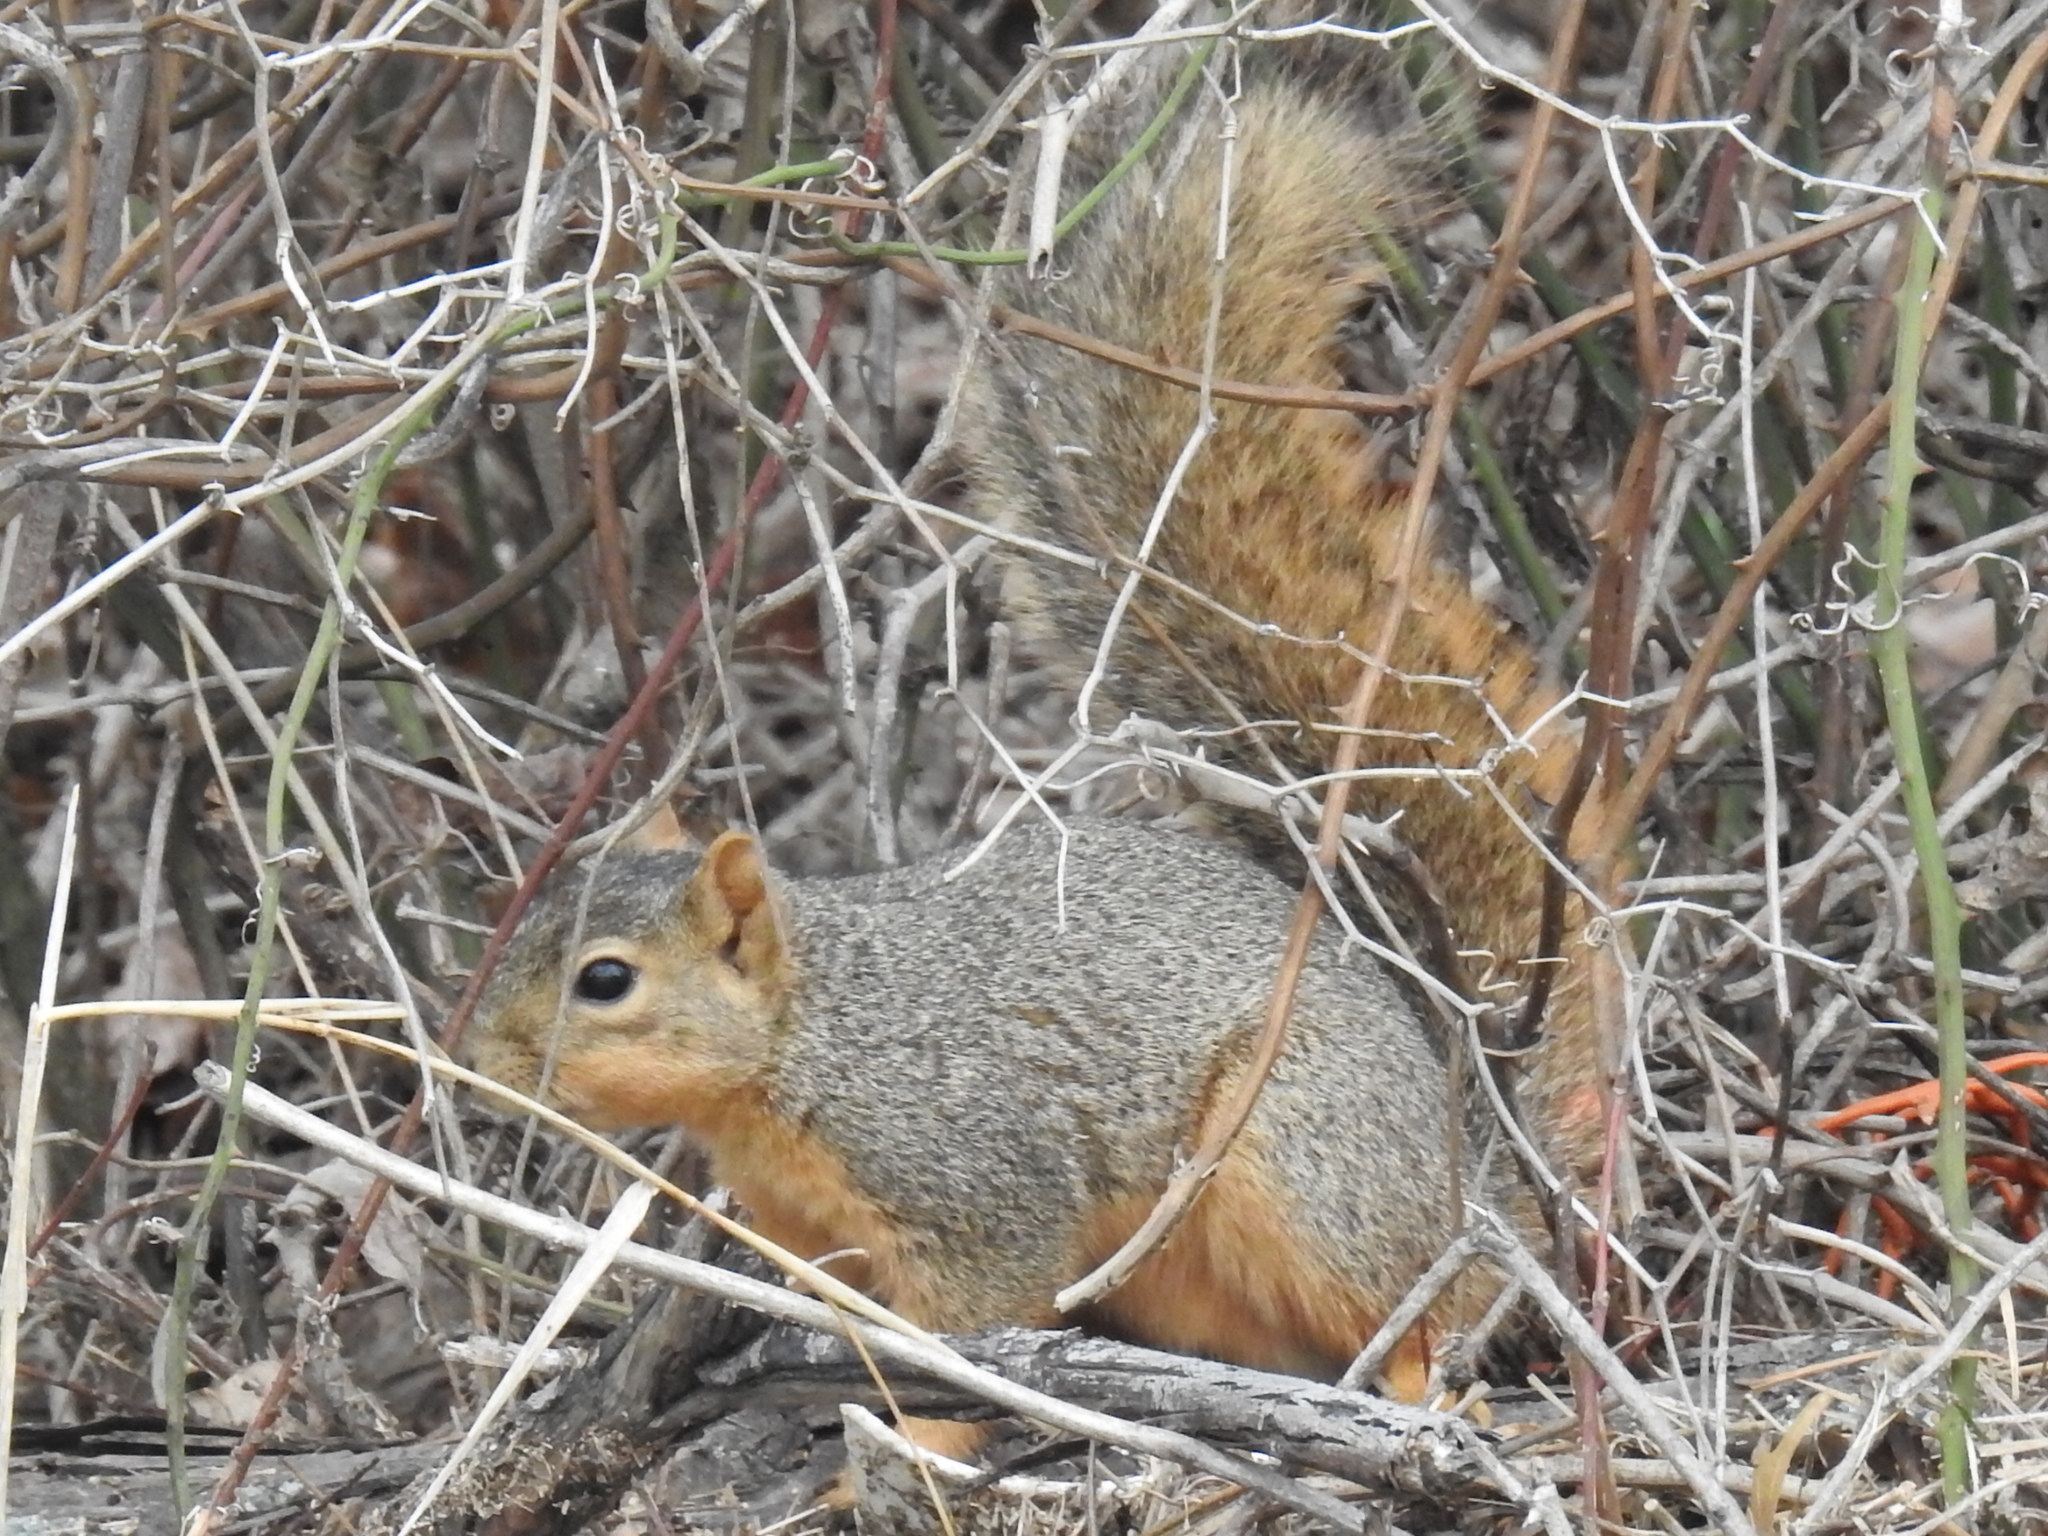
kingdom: Animalia
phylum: Chordata
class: Mammalia
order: Rodentia
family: Sciuridae
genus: Sciurus
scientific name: Sciurus niger
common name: Fox squirrel
